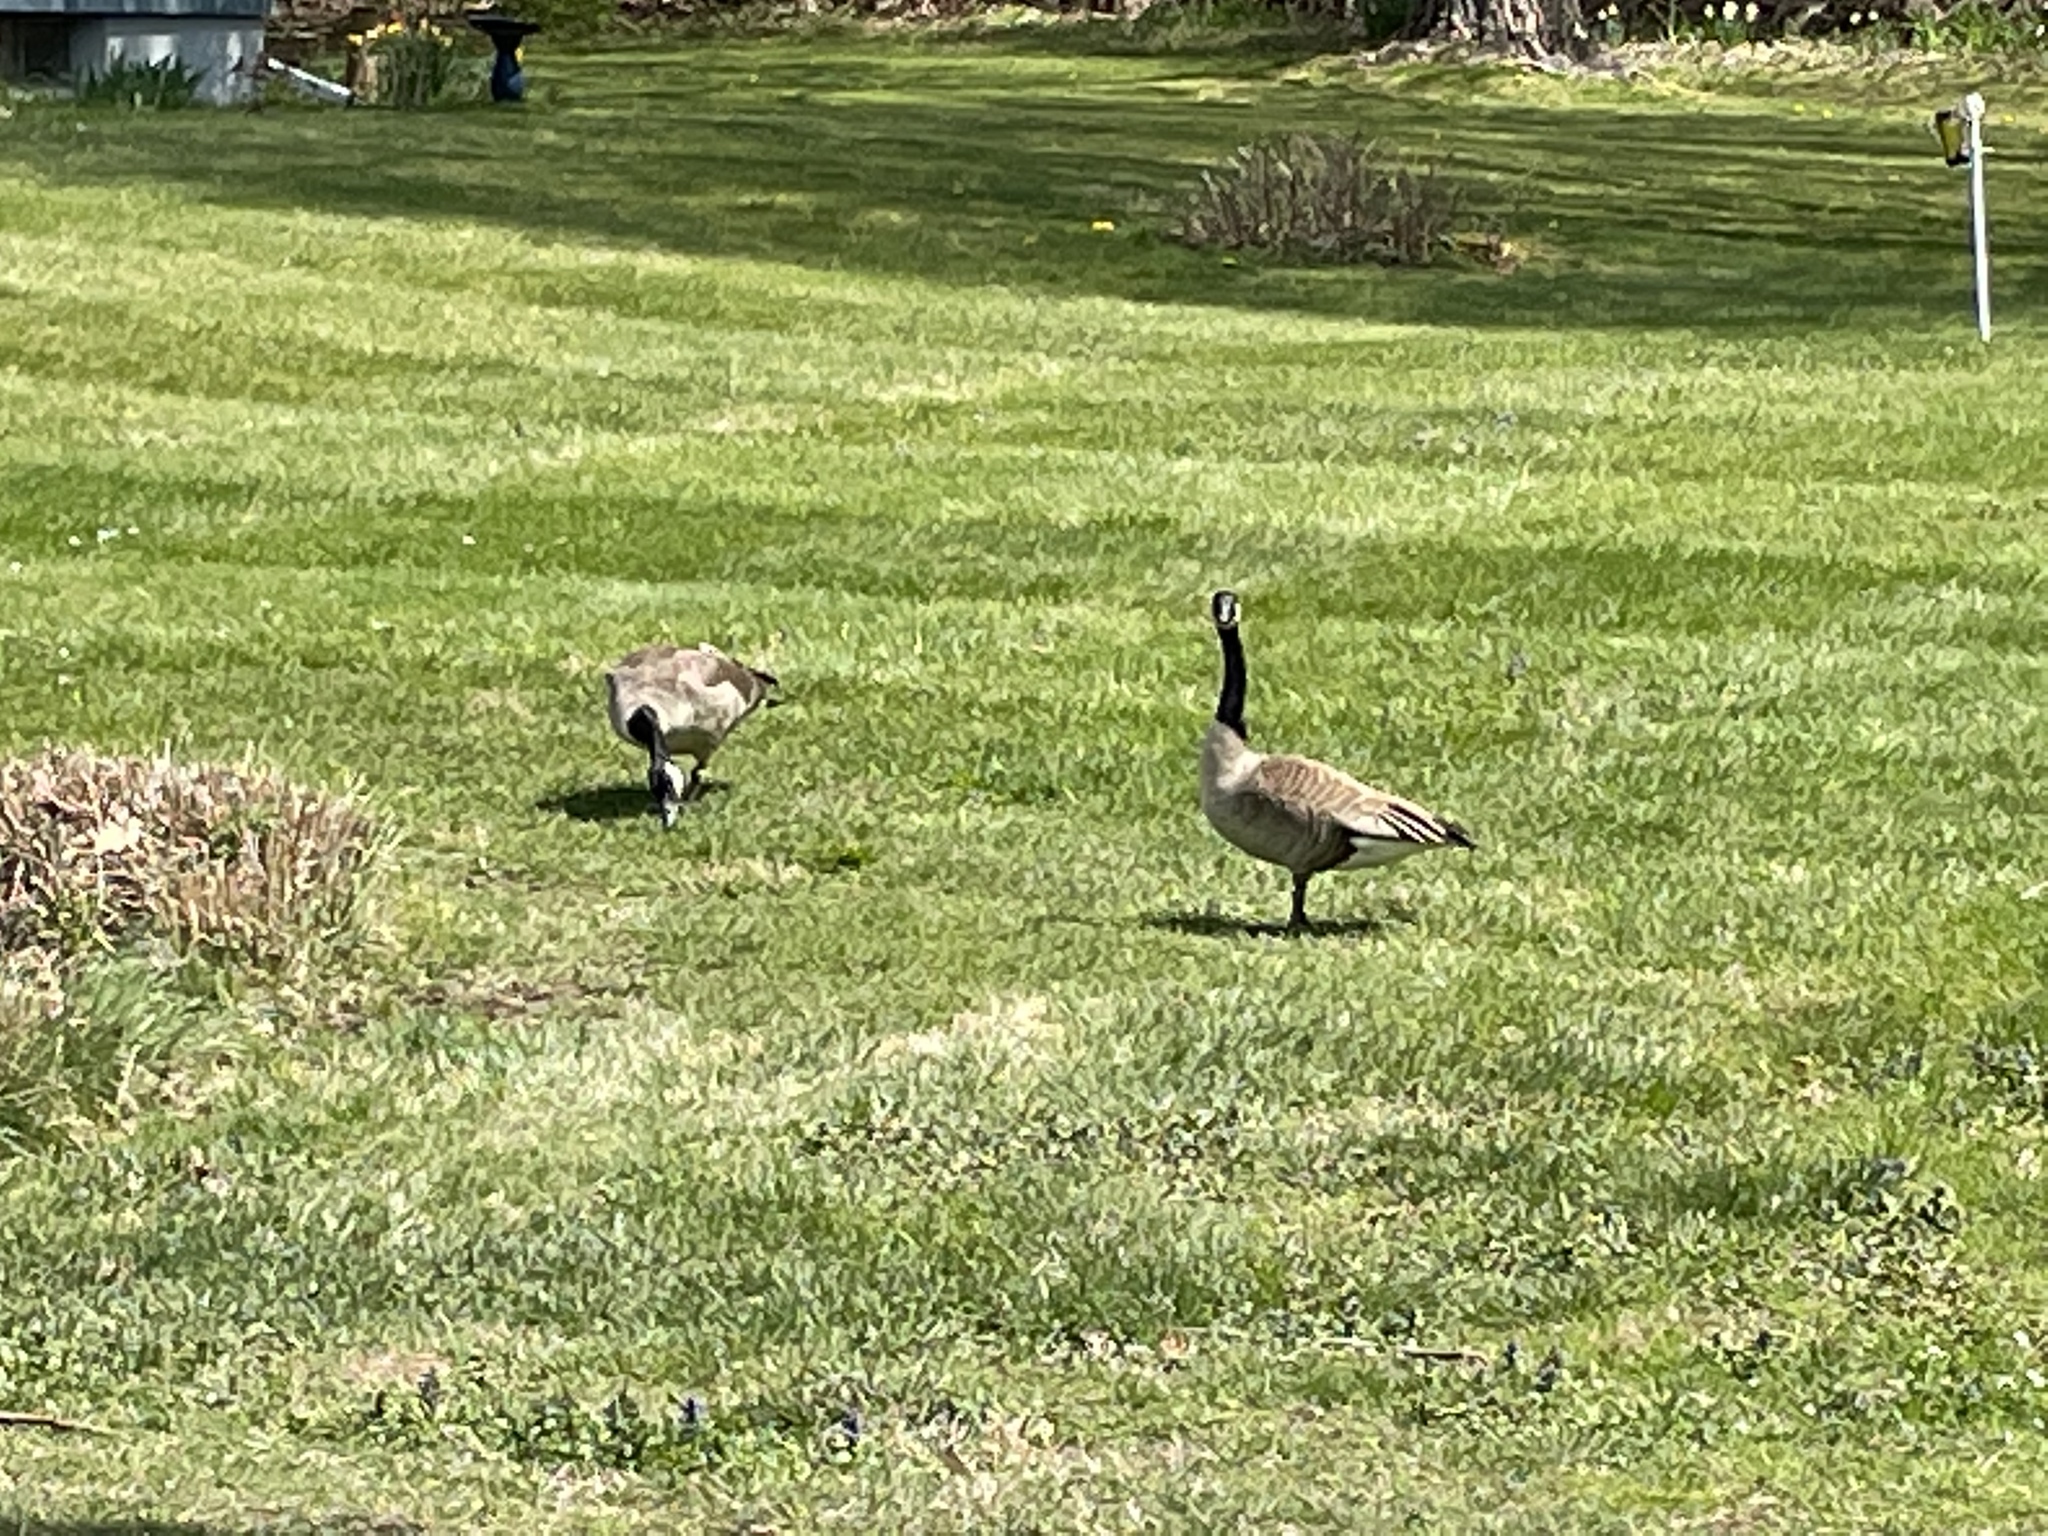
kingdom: Animalia
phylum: Chordata
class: Aves
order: Anseriformes
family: Anatidae
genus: Branta
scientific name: Branta canadensis
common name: Canada goose
